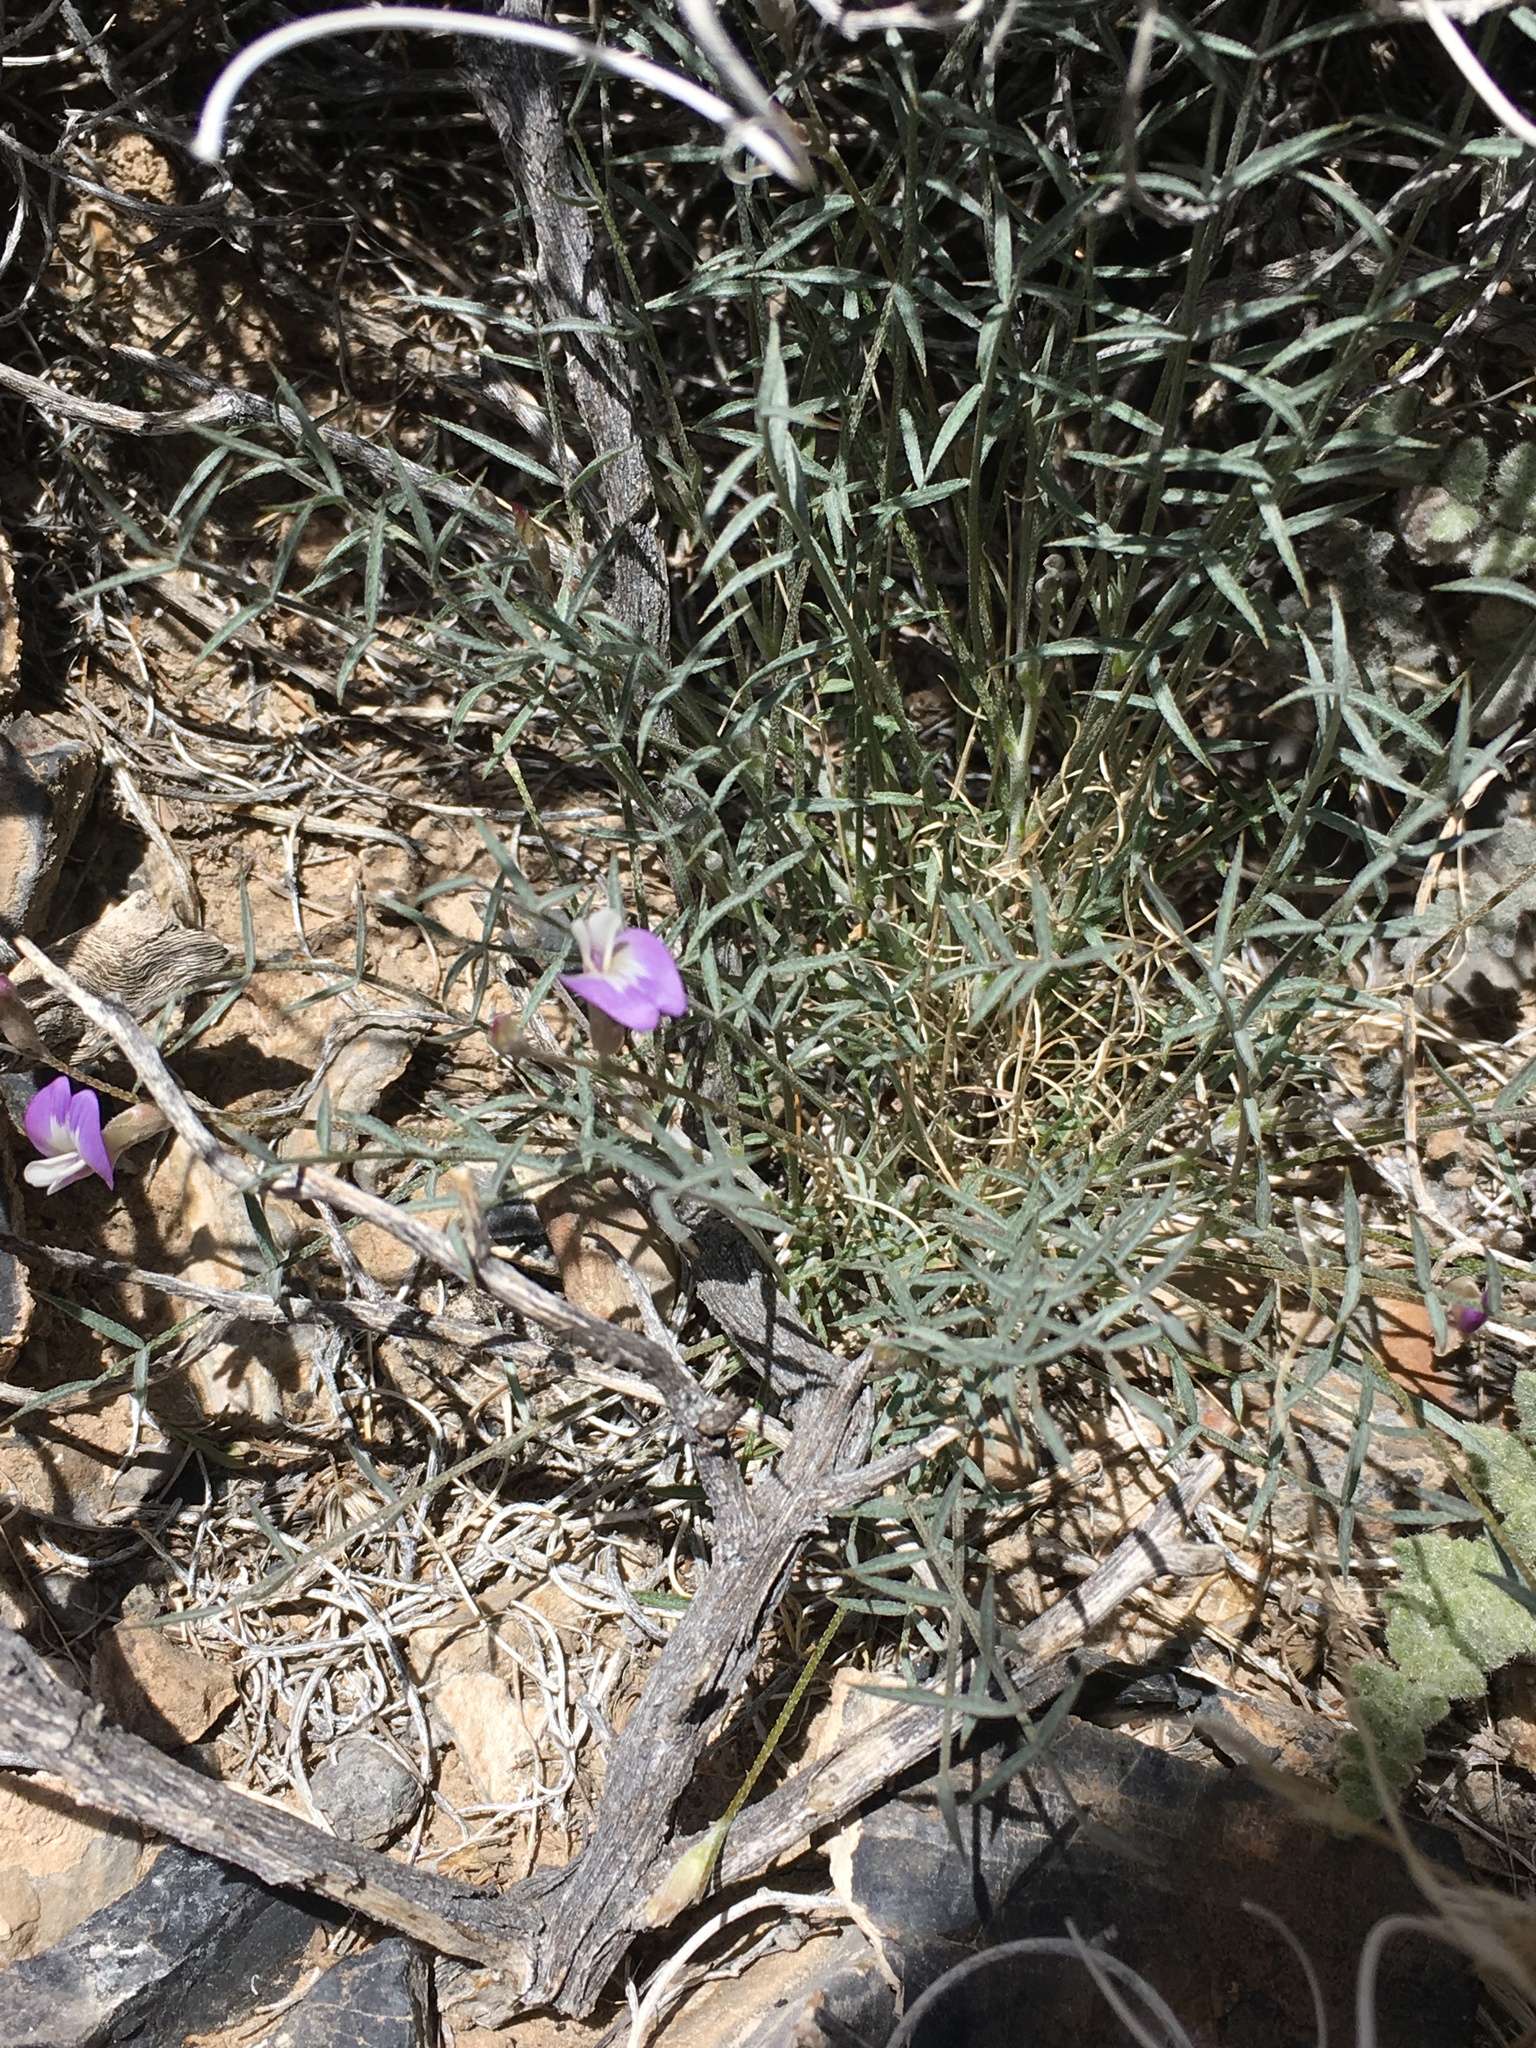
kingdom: Plantae
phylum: Tracheophyta
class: Magnoliopsida
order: Fabales
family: Fabaceae
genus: Astragalus
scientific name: Astragalus panamintensis
